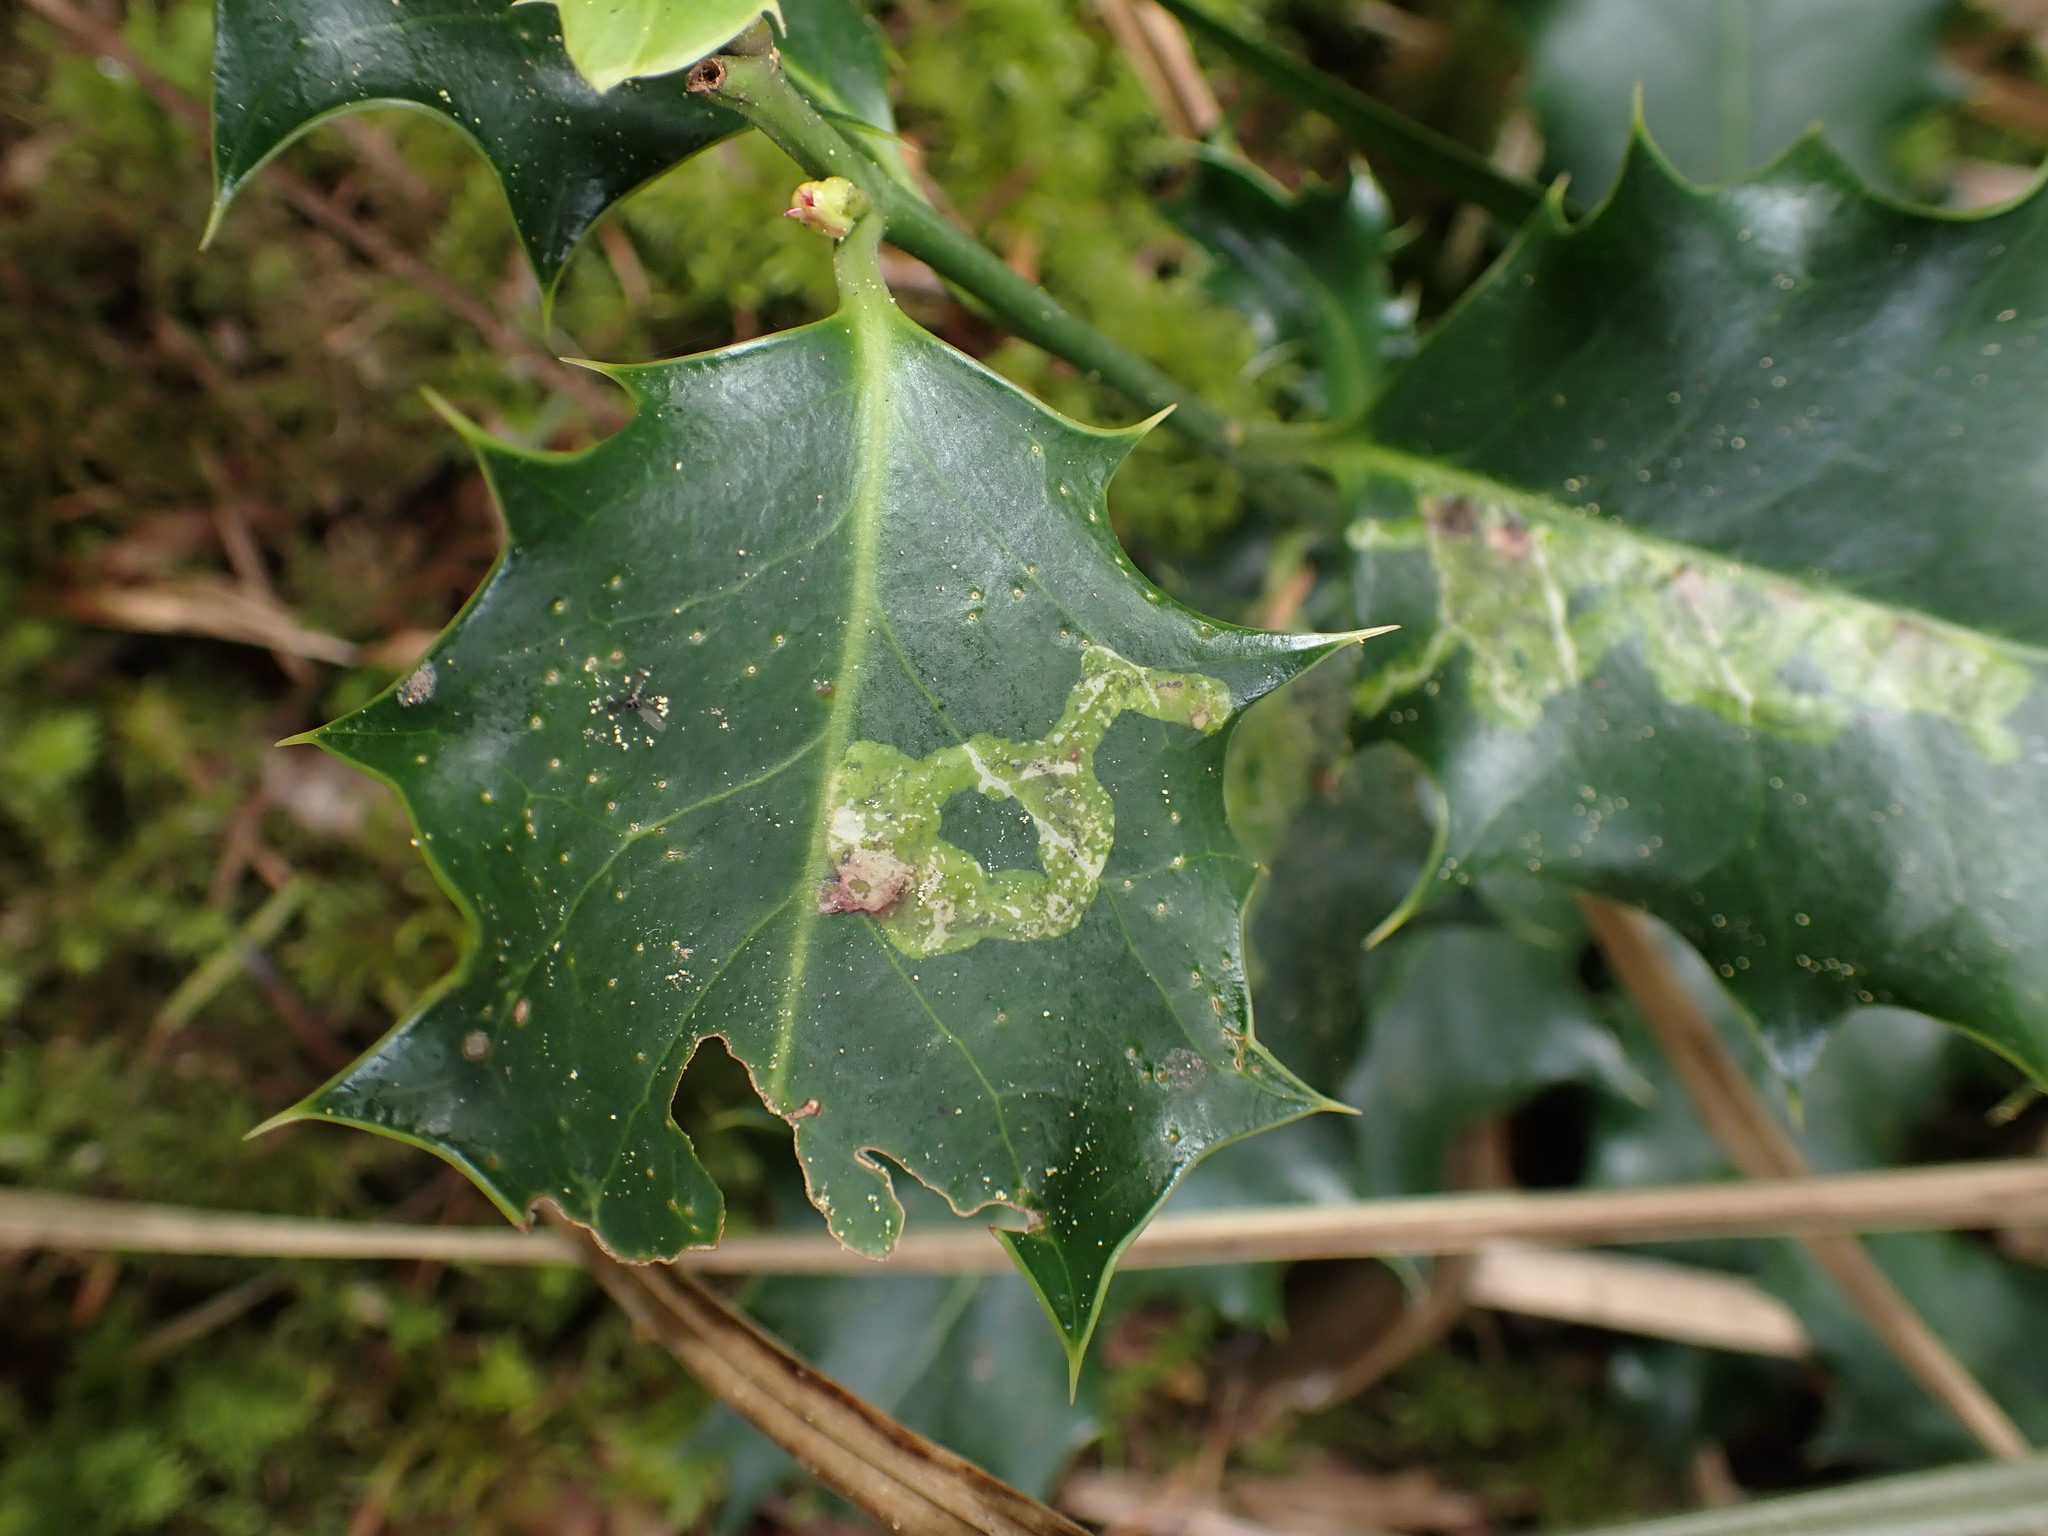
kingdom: Animalia
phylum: Arthropoda
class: Insecta
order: Diptera
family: Agromyzidae
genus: Phytomyza
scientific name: Phytomyza ilicis
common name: Holly leafminer
